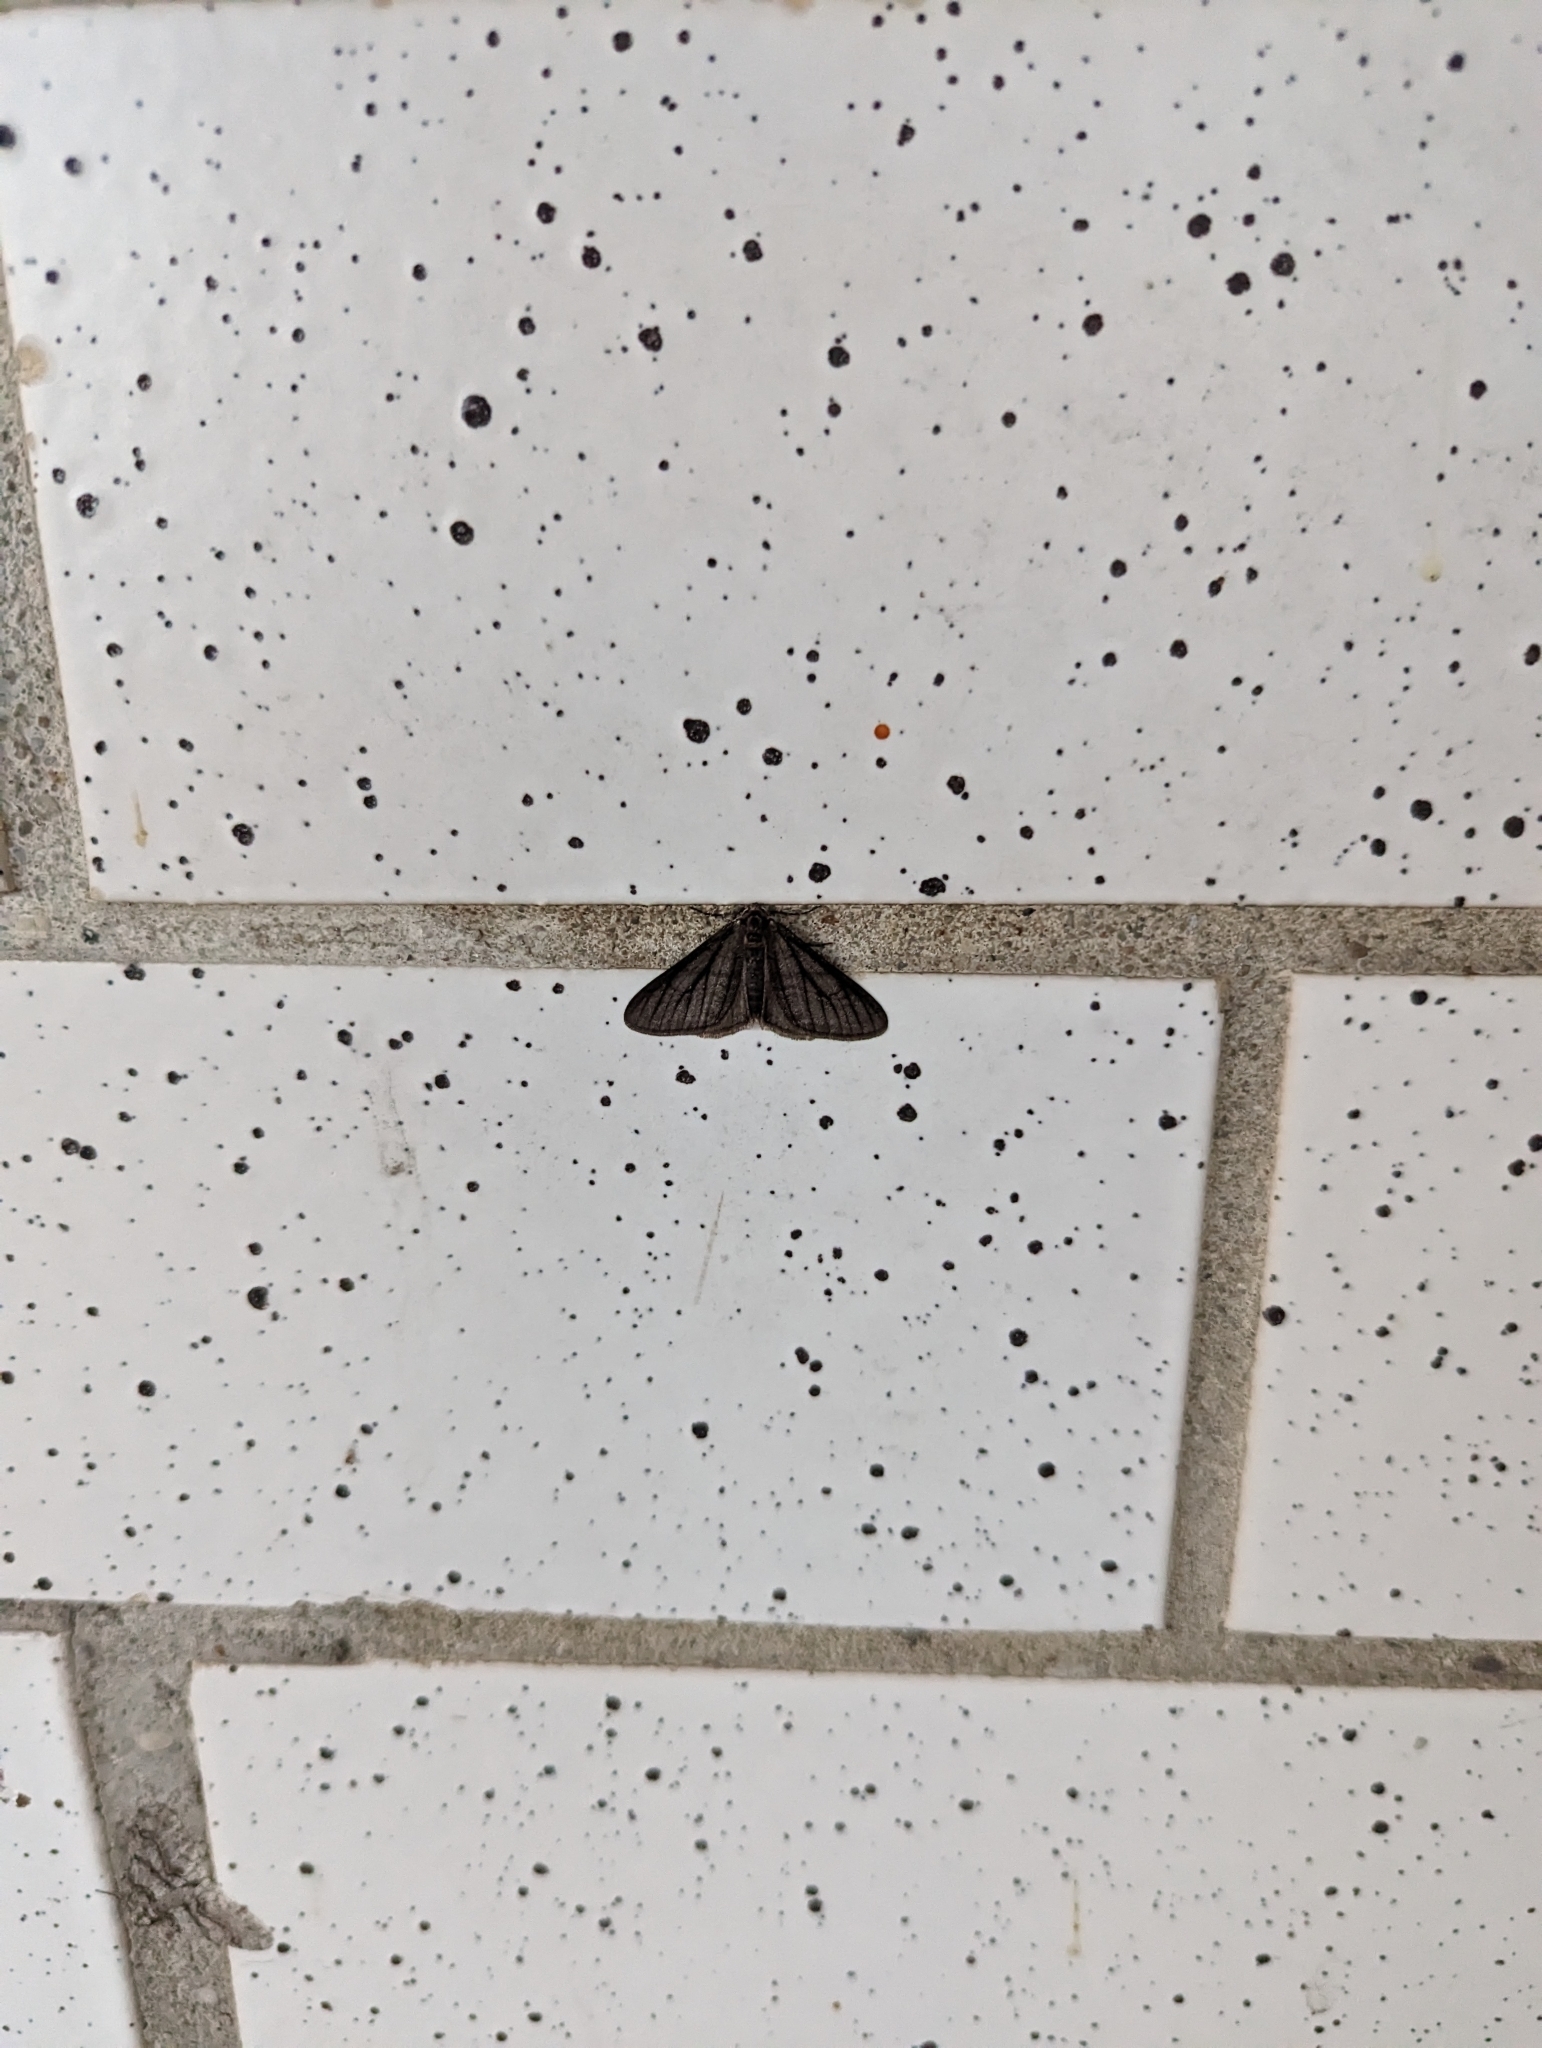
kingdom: Animalia
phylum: Arthropoda
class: Insecta
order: Lepidoptera
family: Geometridae
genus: Phigalia
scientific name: Phigalia titea
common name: Spiny looper
